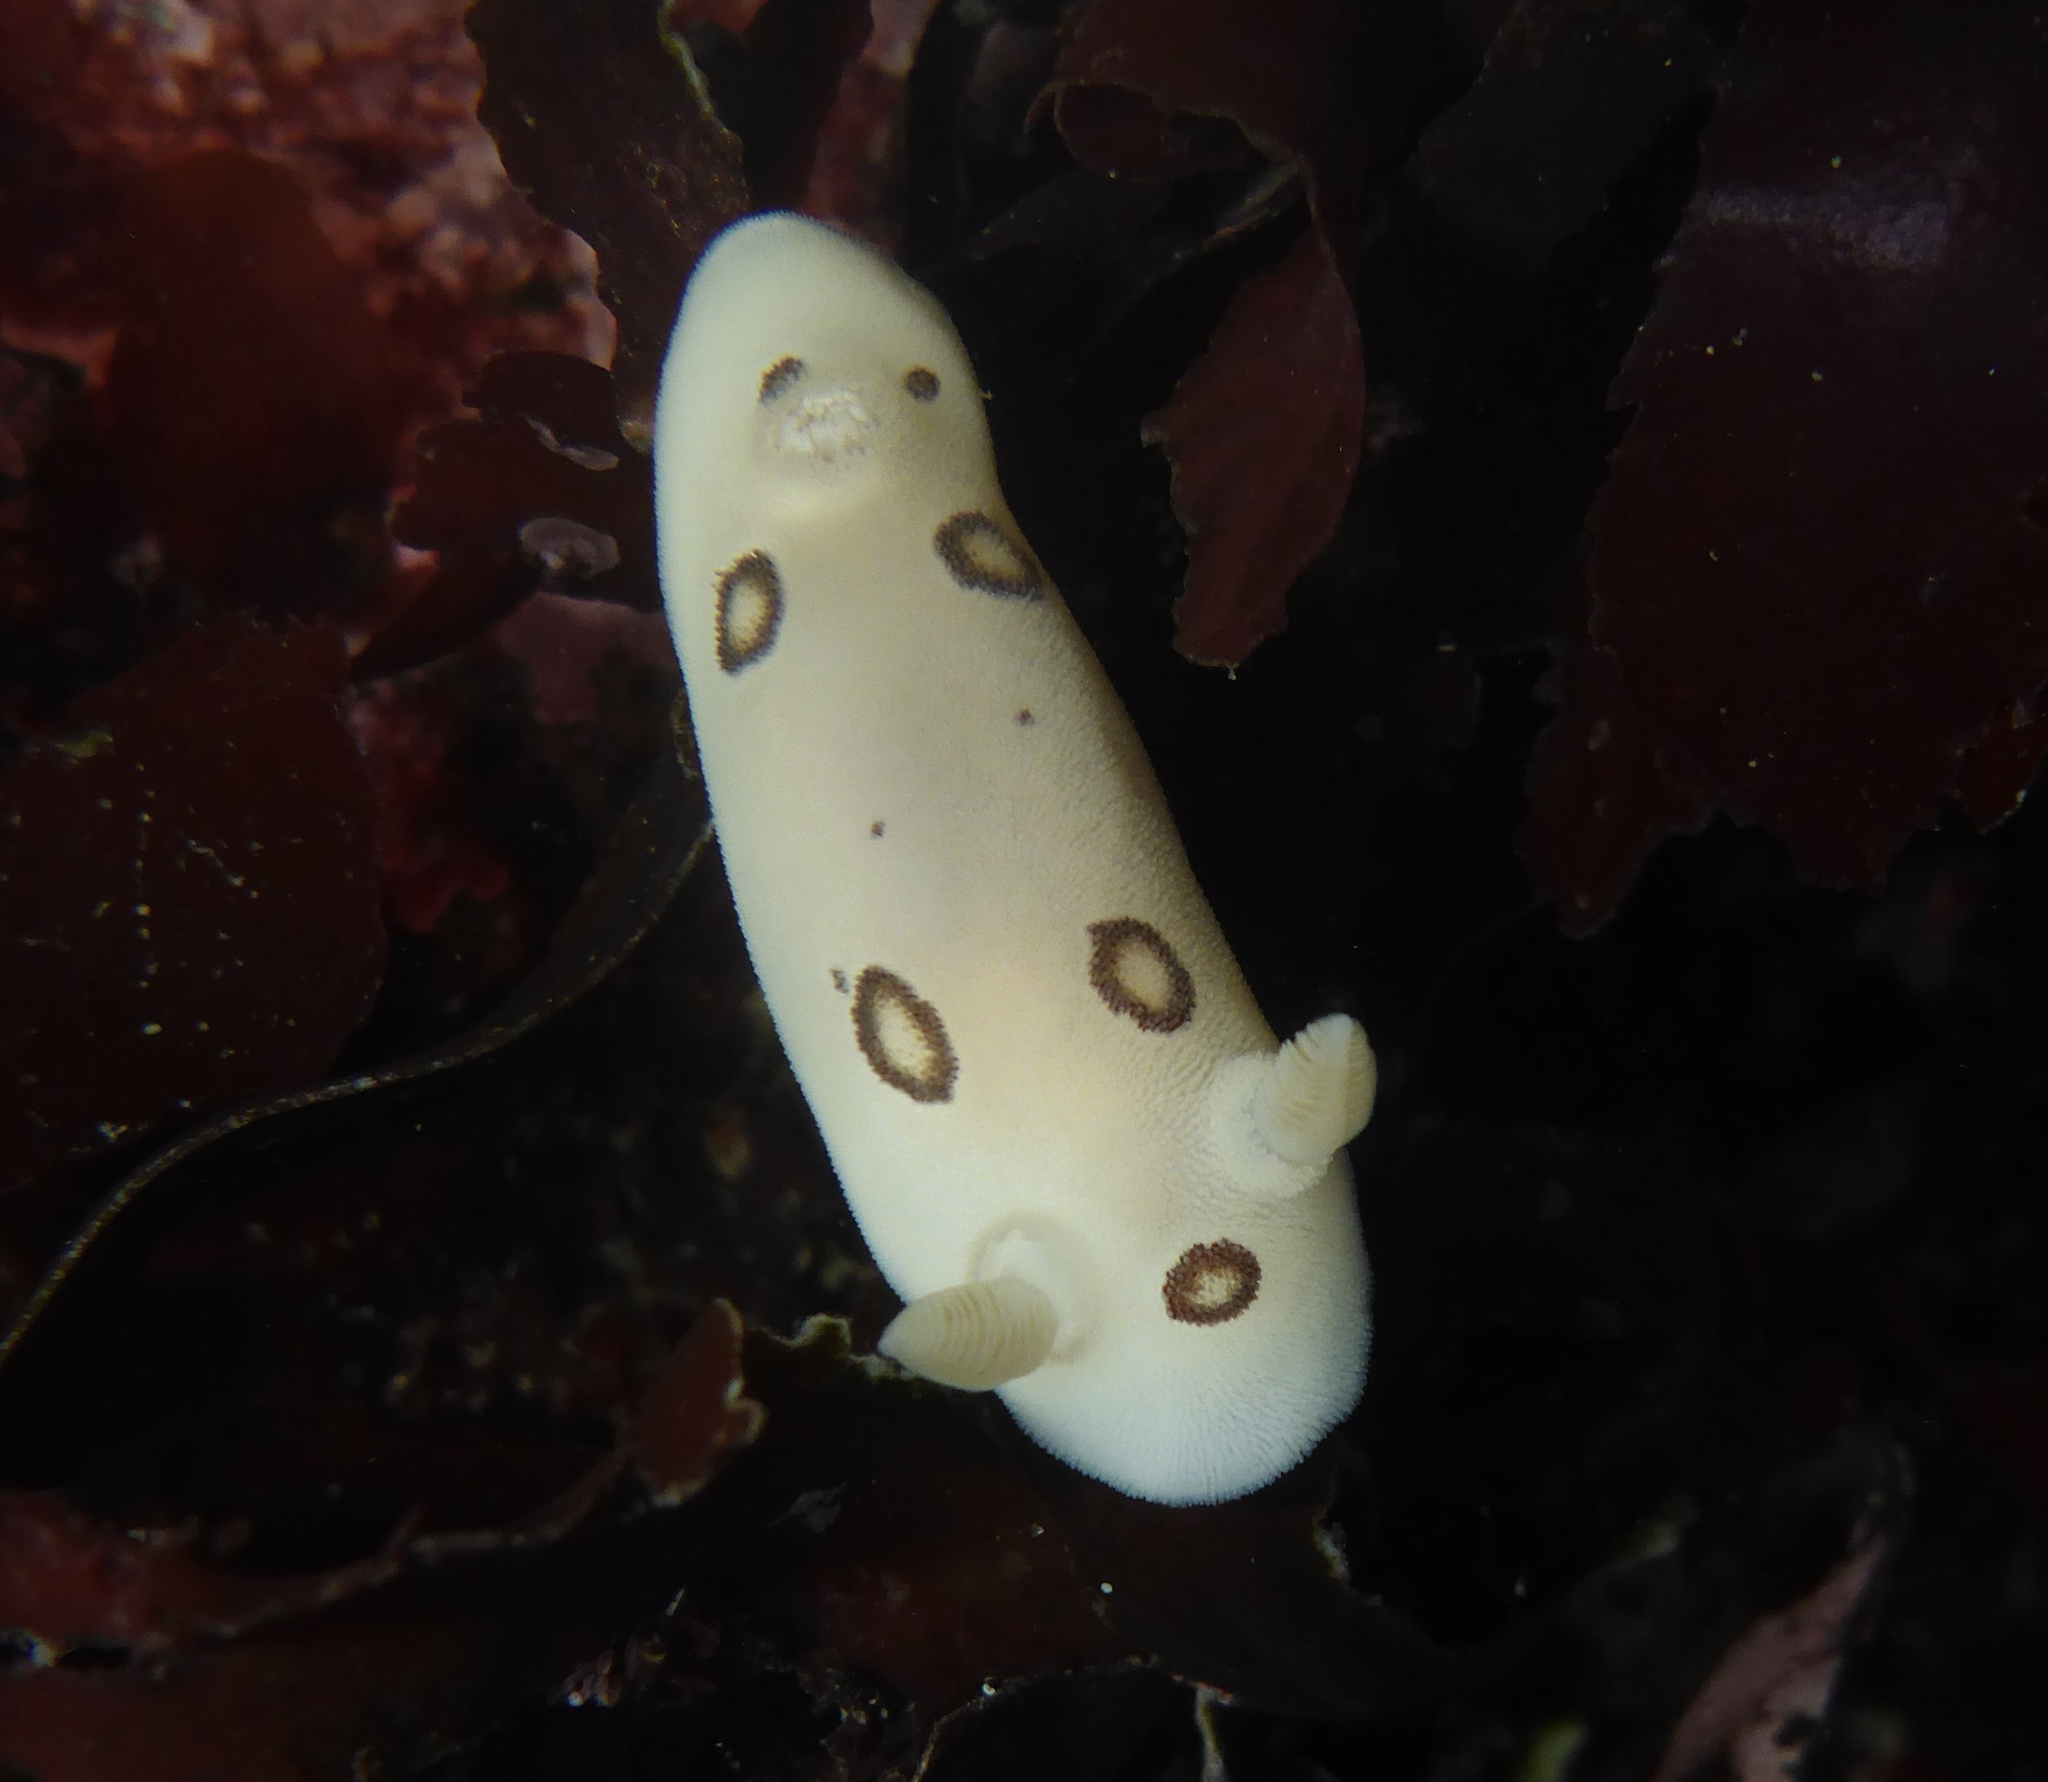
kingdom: Animalia
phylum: Mollusca
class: Gastropoda
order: Nudibranchia
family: Discodorididae
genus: Diaulula
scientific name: Diaulula sandiegensis
